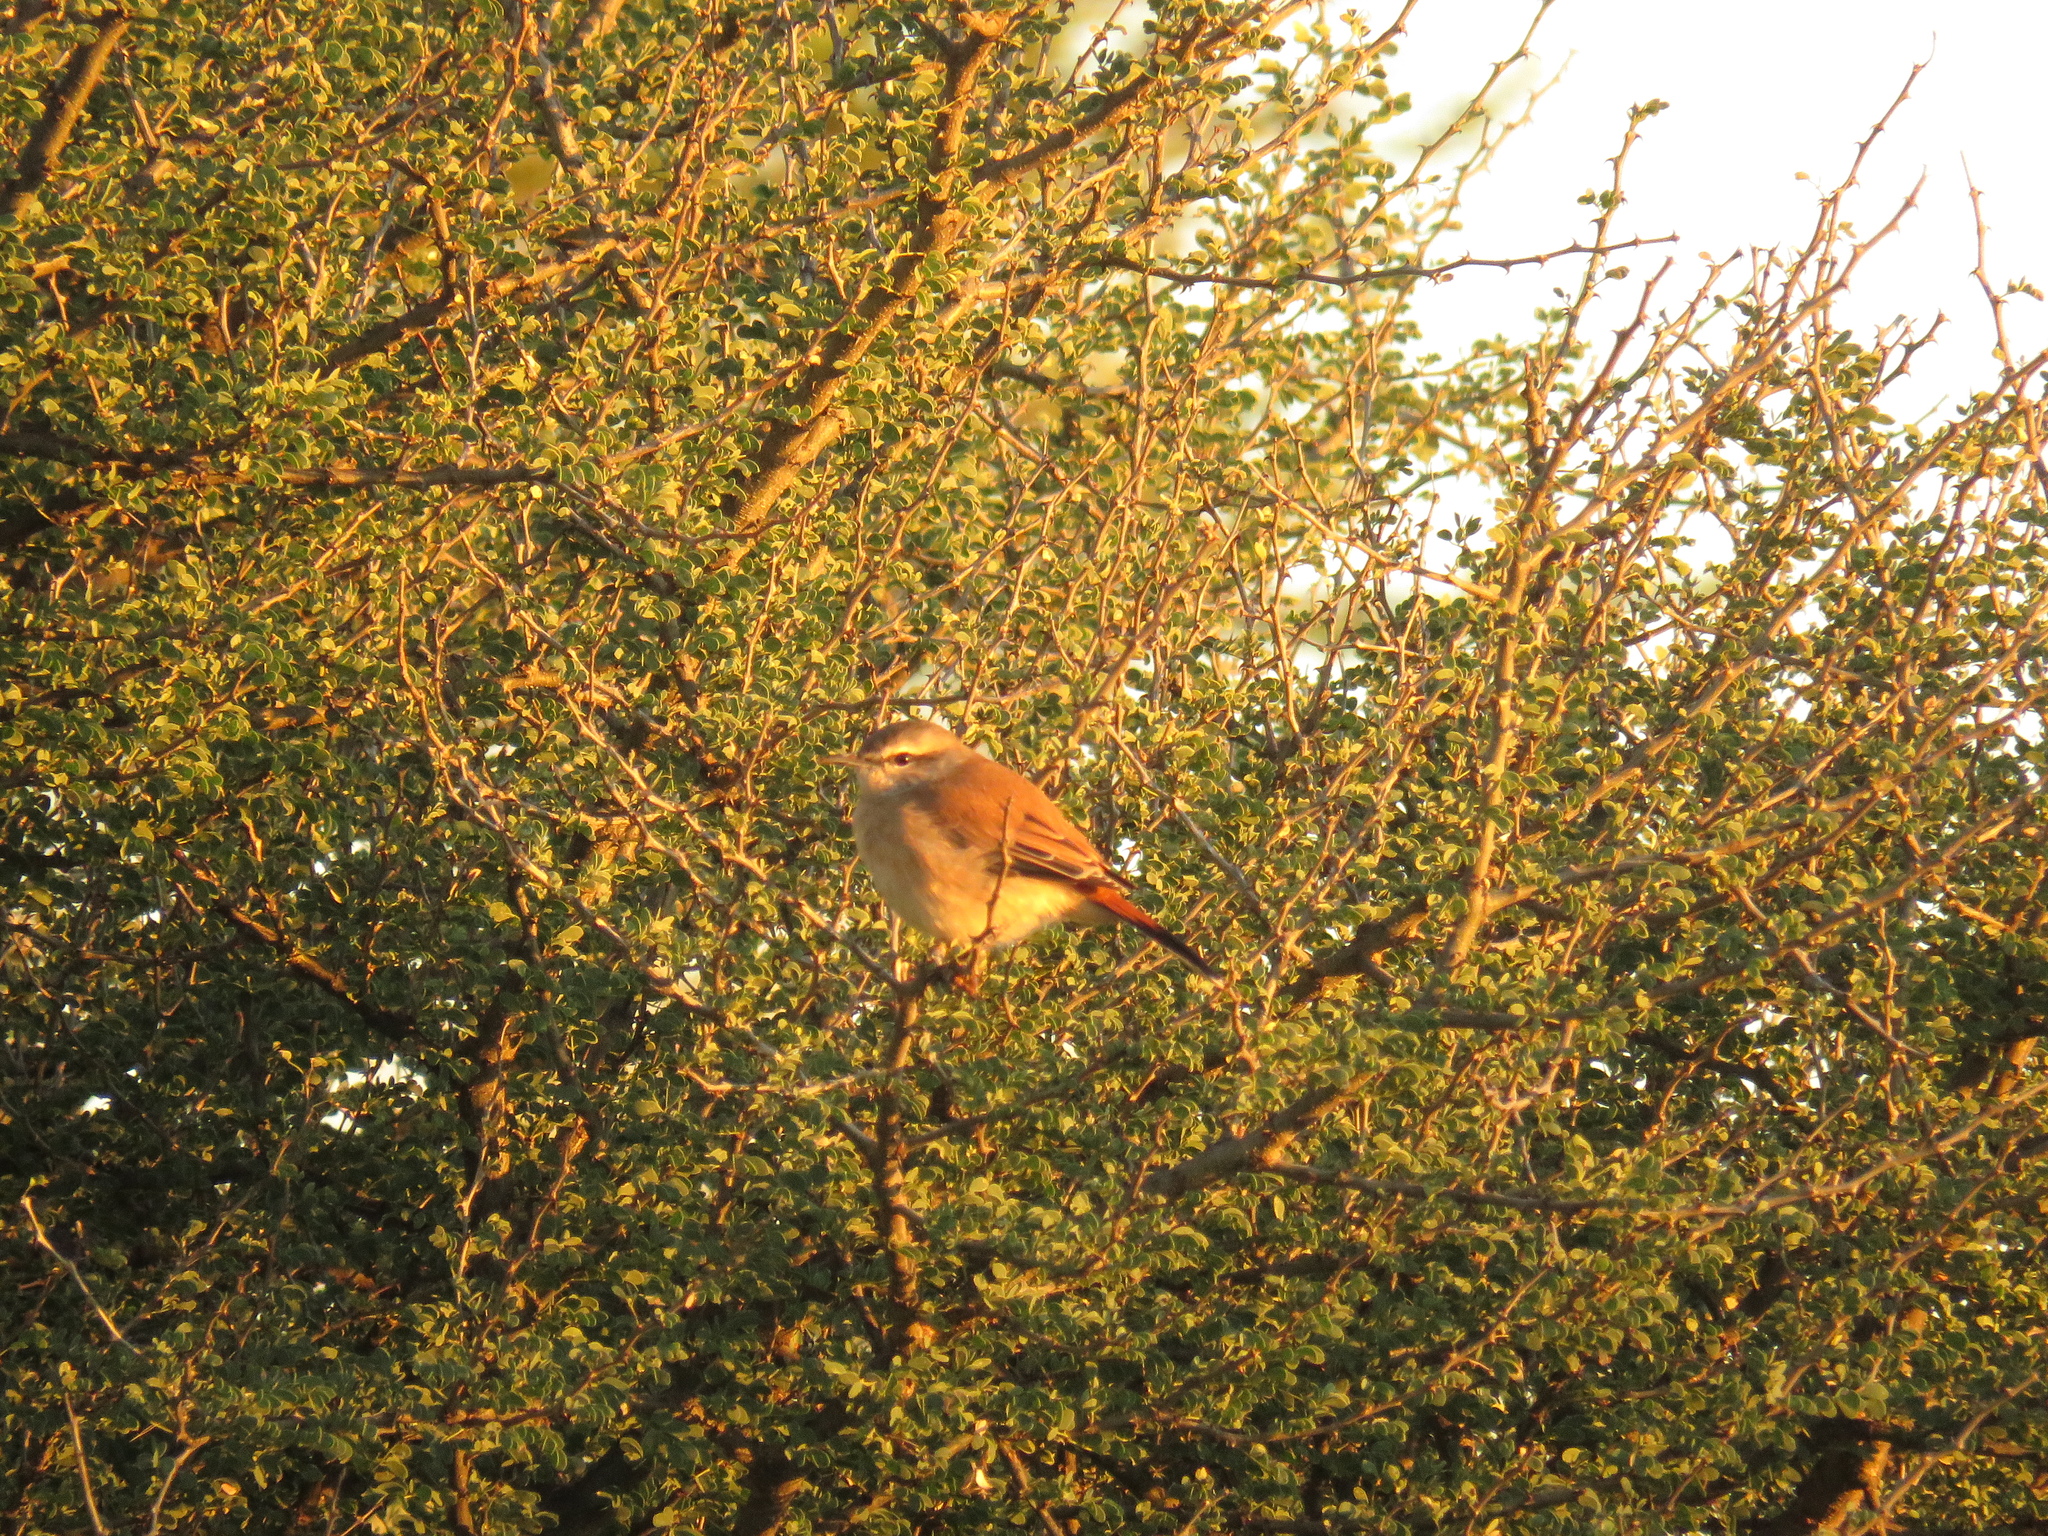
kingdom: Animalia
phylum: Chordata
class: Aves
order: Passeriformes
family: Muscicapidae
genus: Erythropygia
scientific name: Erythropygia paena
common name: Kalahari scrub robin
